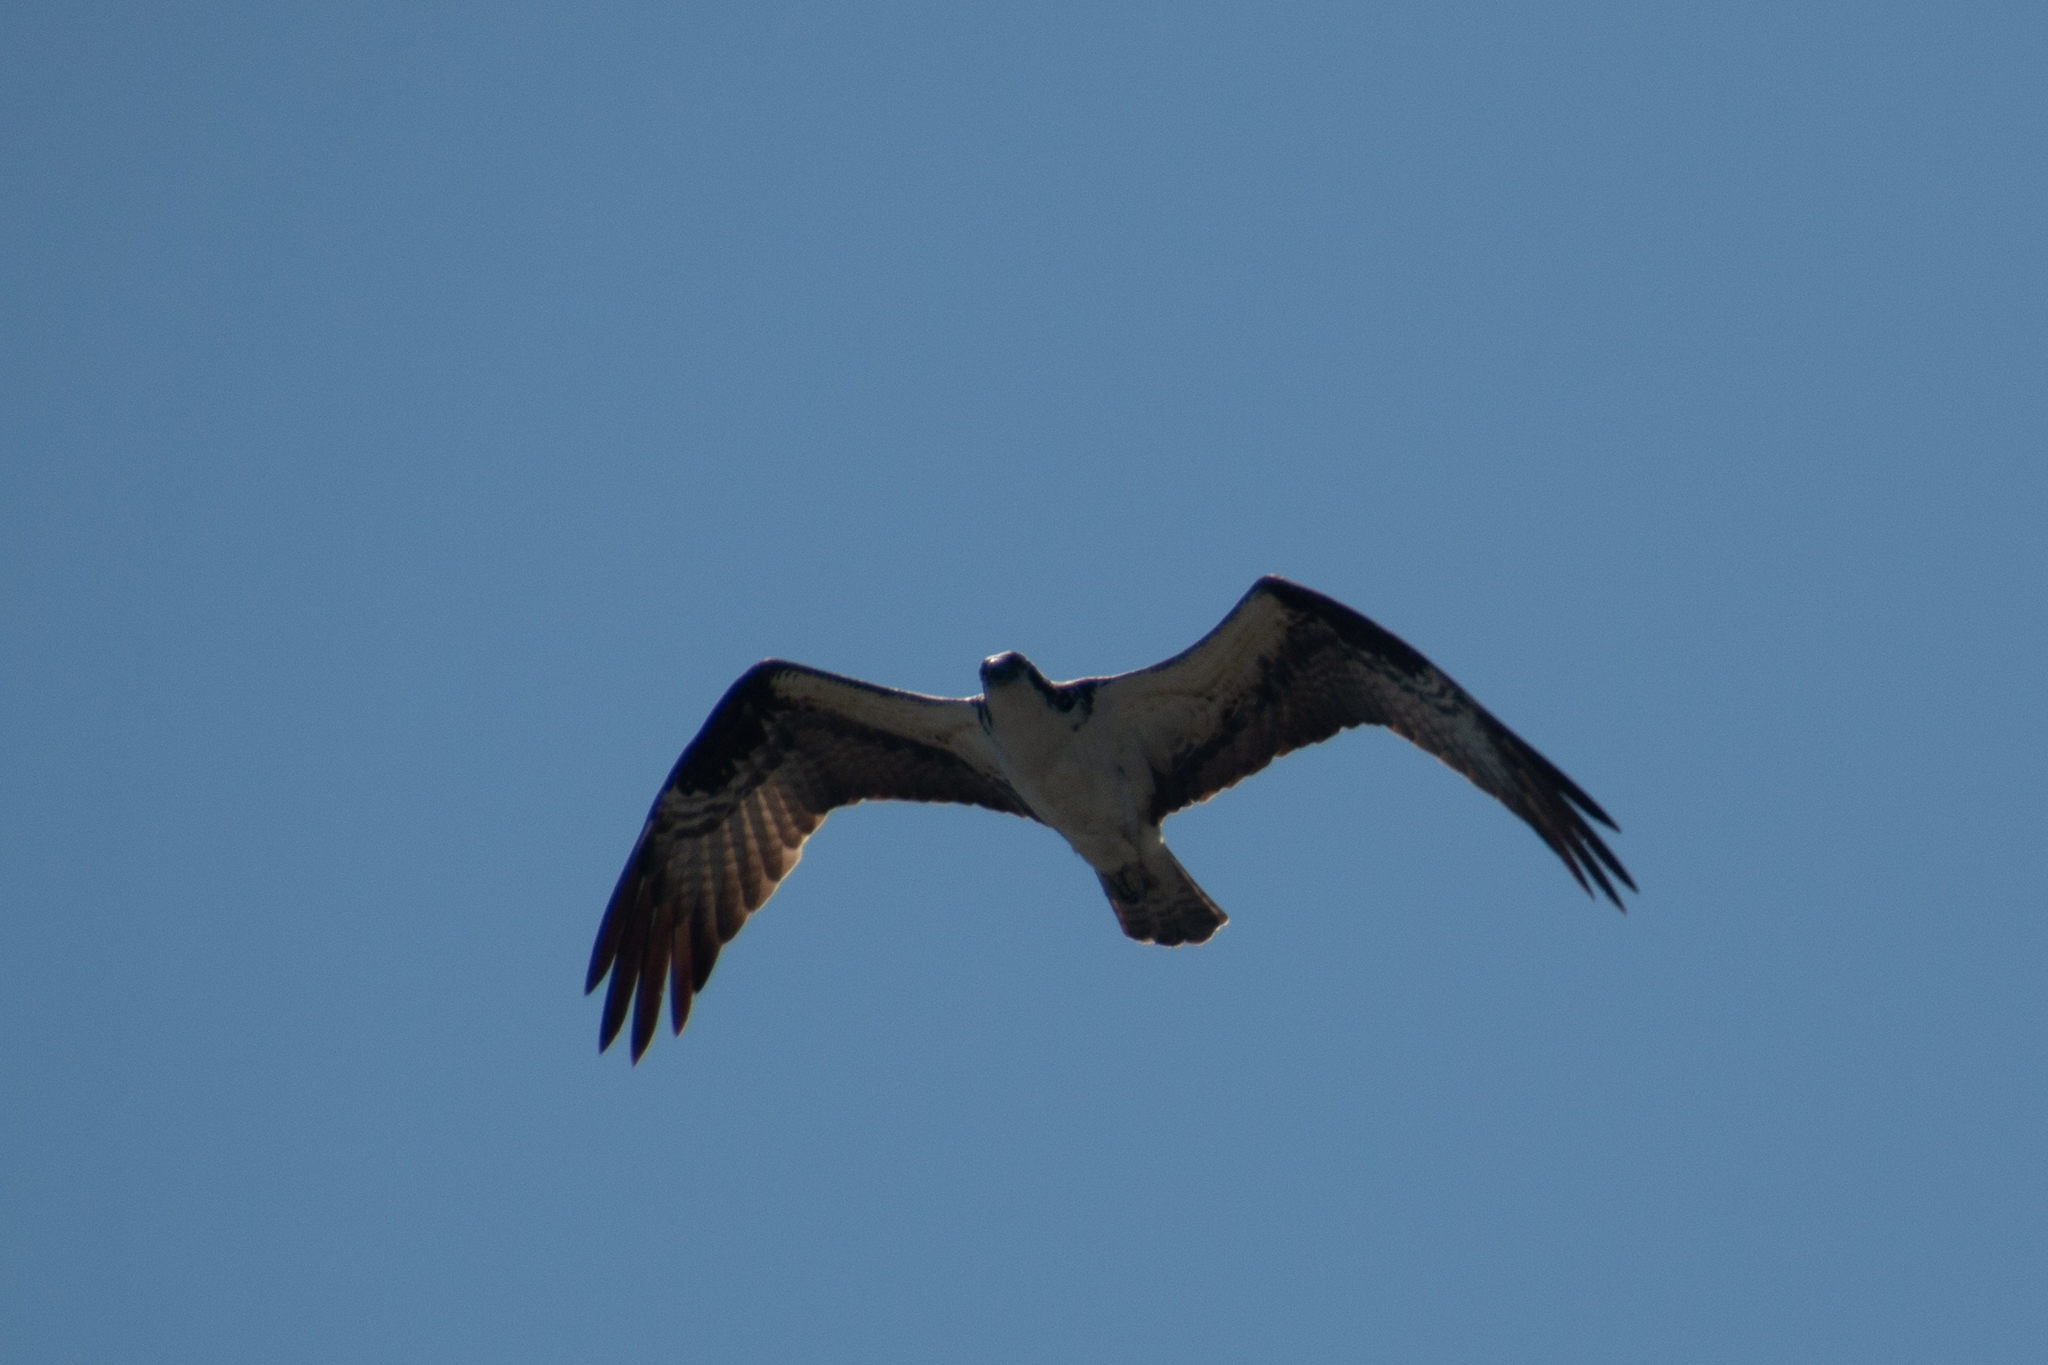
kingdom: Animalia
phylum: Chordata
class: Aves
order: Accipitriformes
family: Pandionidae
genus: Pandion
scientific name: Pandion haliaetus
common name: Osprey
